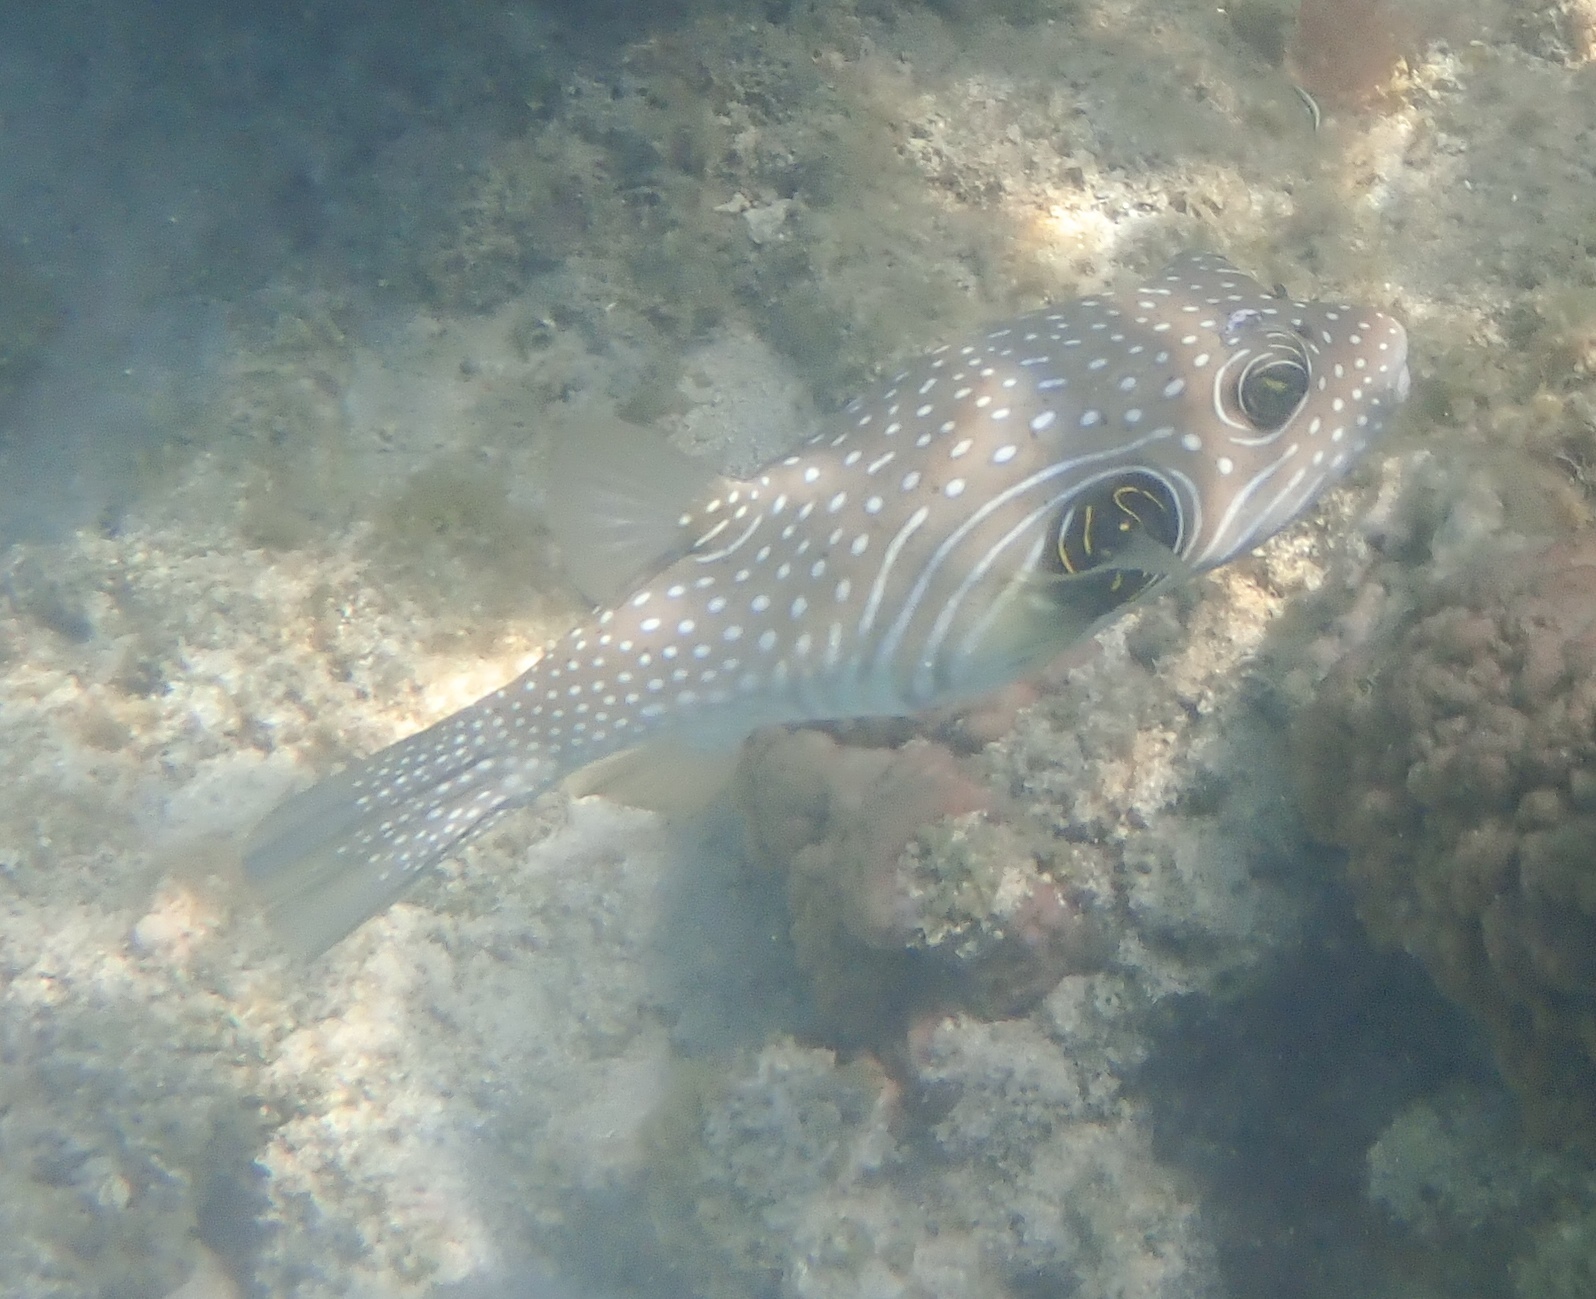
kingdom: Animalia
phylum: Chordata
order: Tetraodontiformes
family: Tetraodontidae
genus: Arothron
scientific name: Arothron hispidus
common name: Stripebelly puffer
